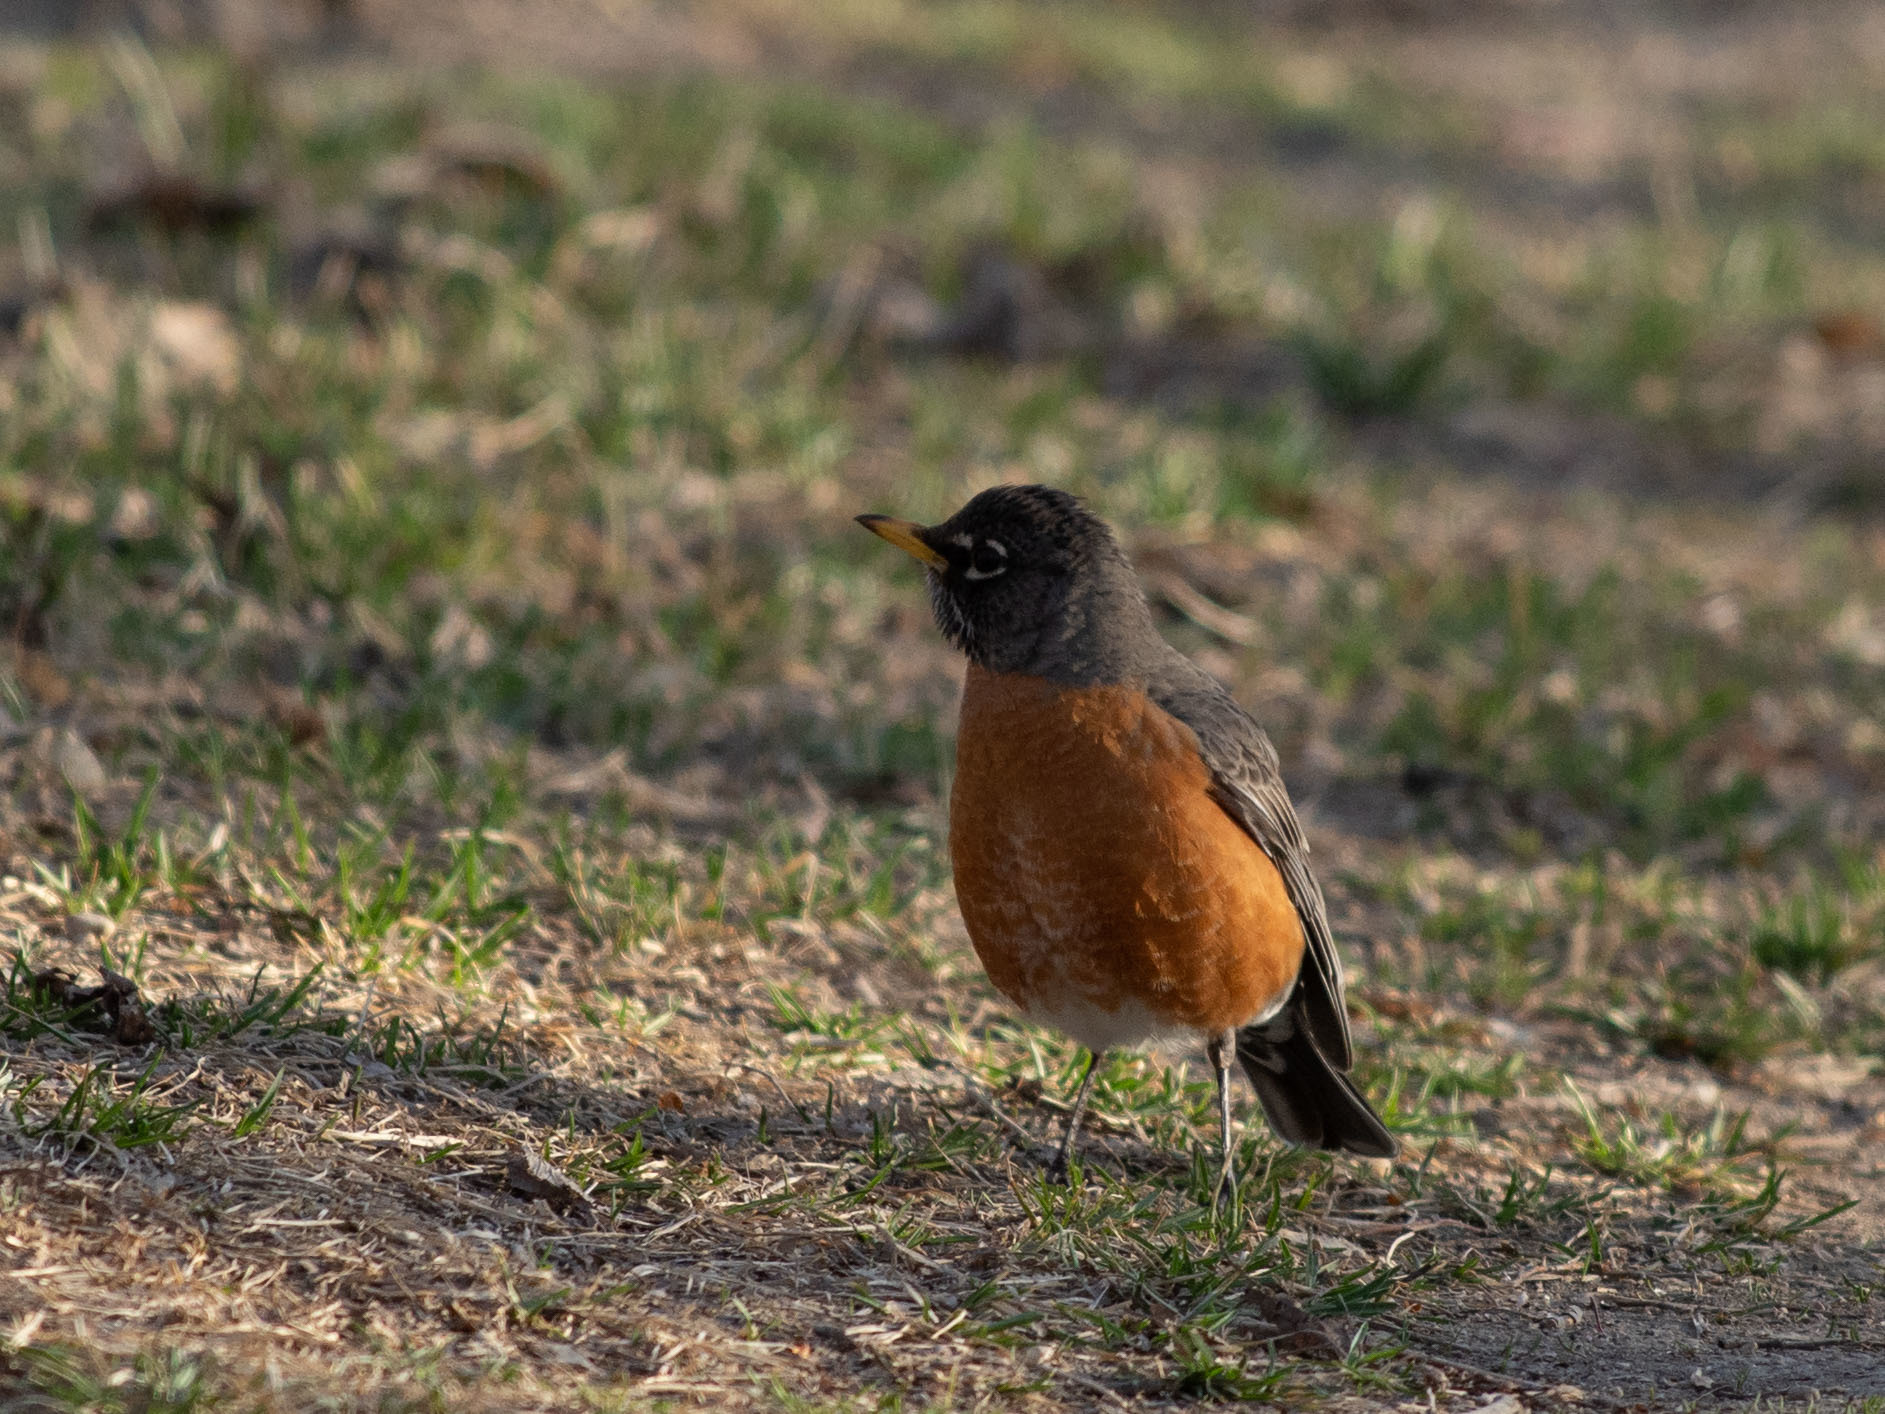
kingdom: Animalia
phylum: Chordata
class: Aves
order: Passeriformes
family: Turdidae
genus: Turdus
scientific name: Turdus migratorius
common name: American robin
